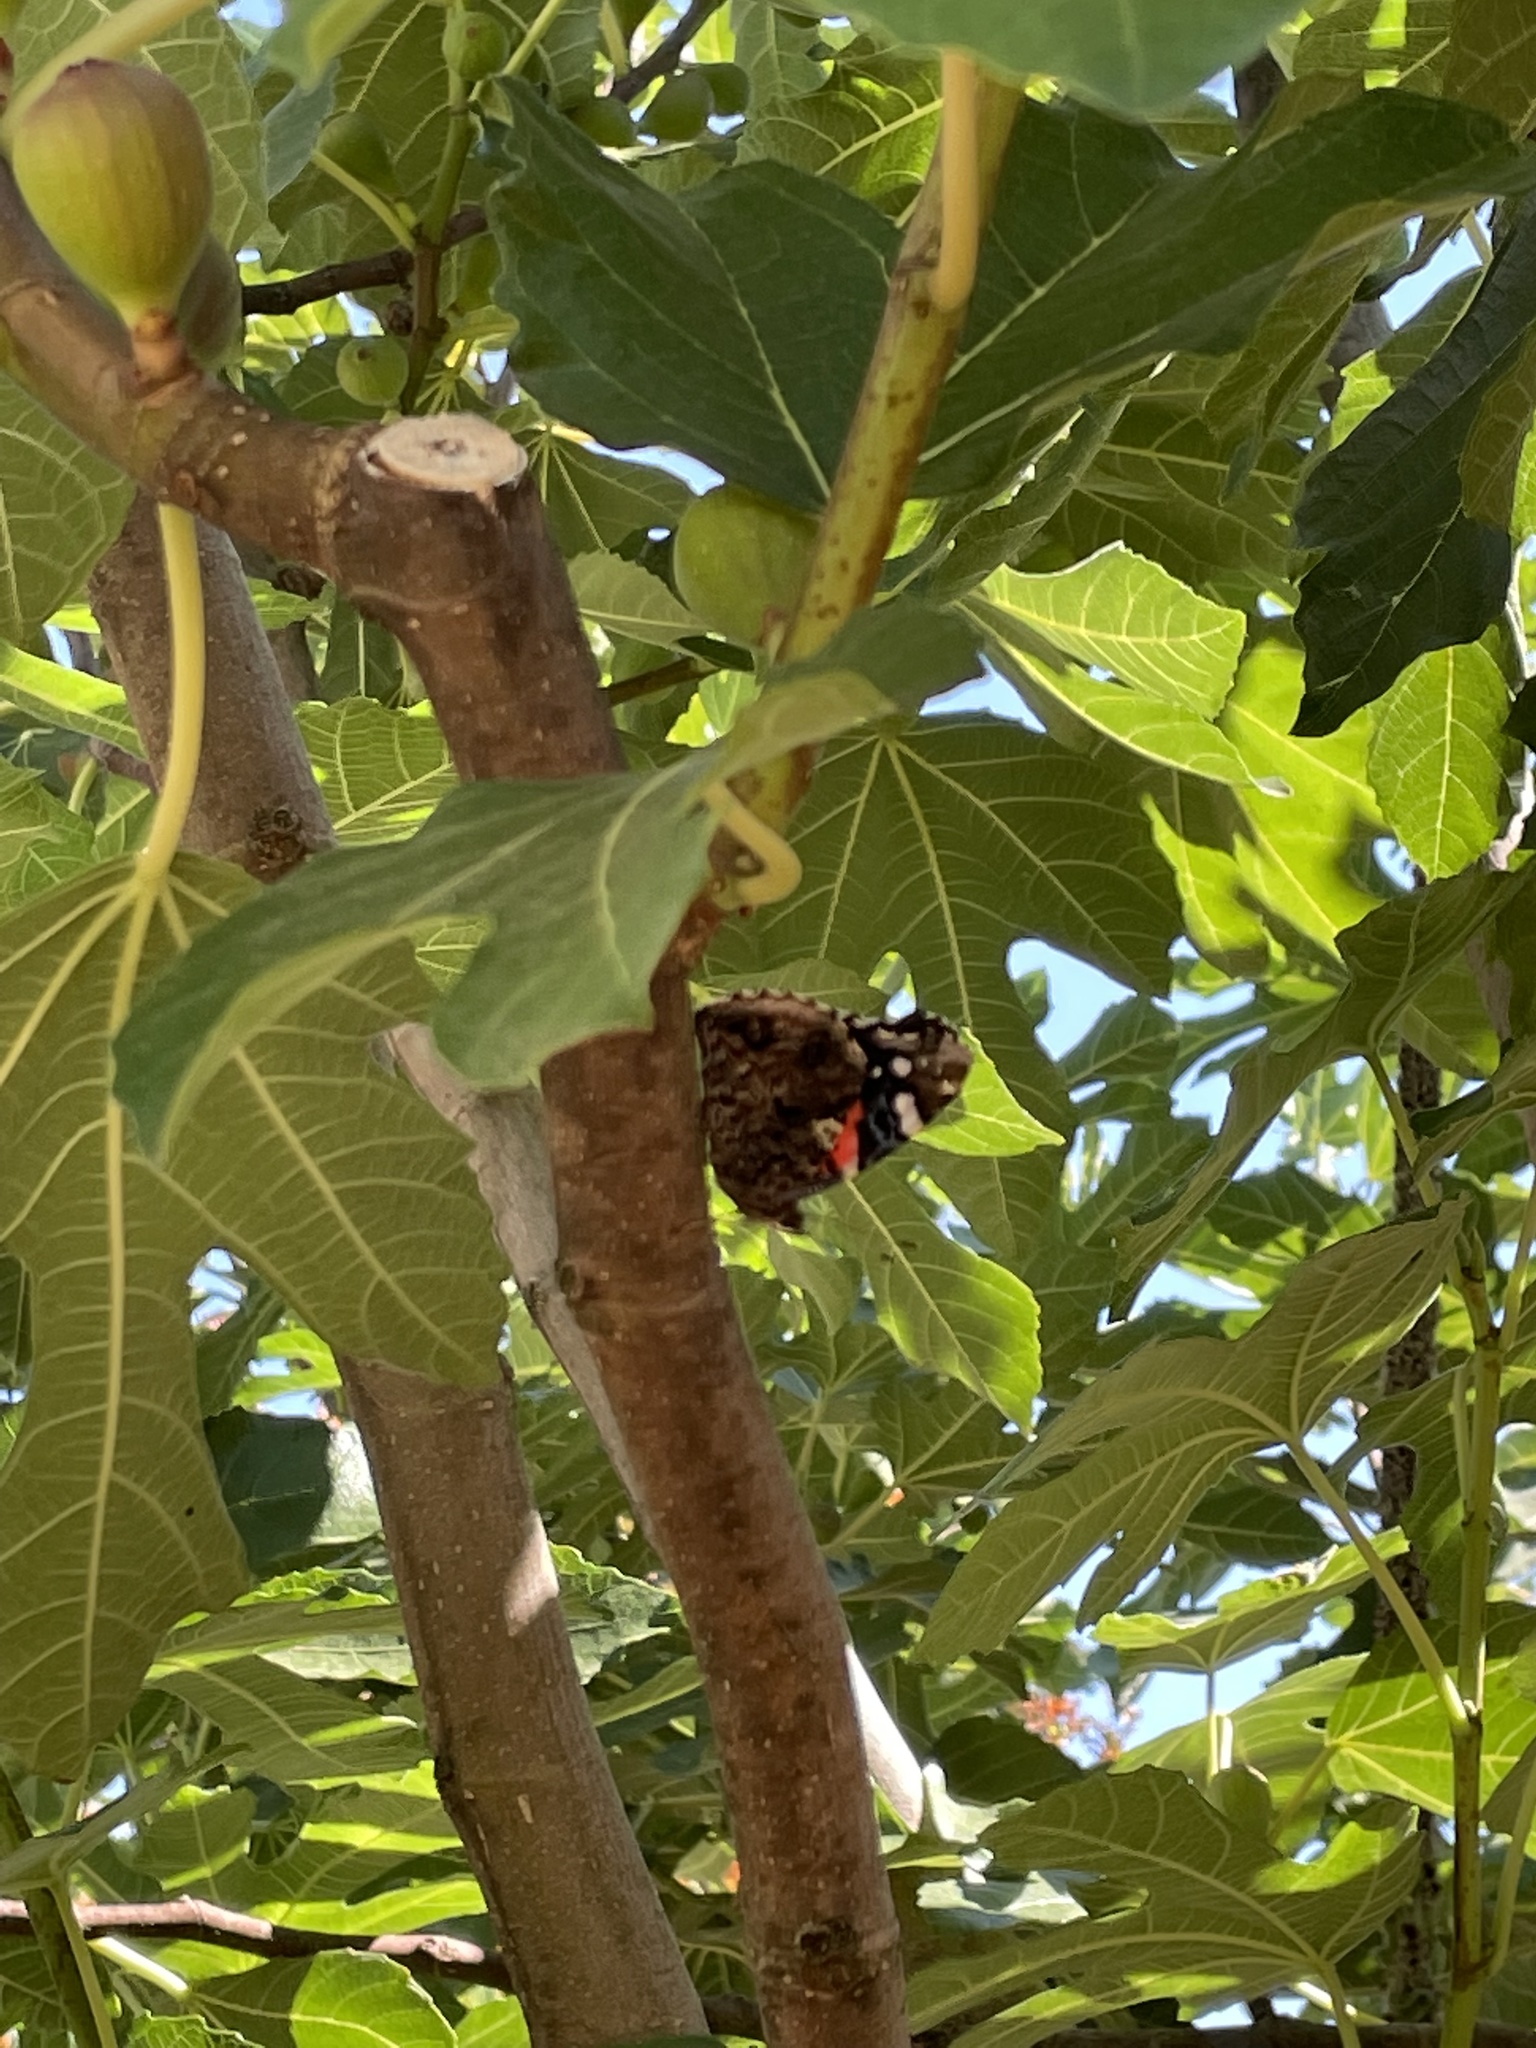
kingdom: Animalia
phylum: Arthropoda
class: Insecta
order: Lepidoptera
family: Nymphalidae
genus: Vanessa
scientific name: Vanessa atalanta
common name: Red admiral
